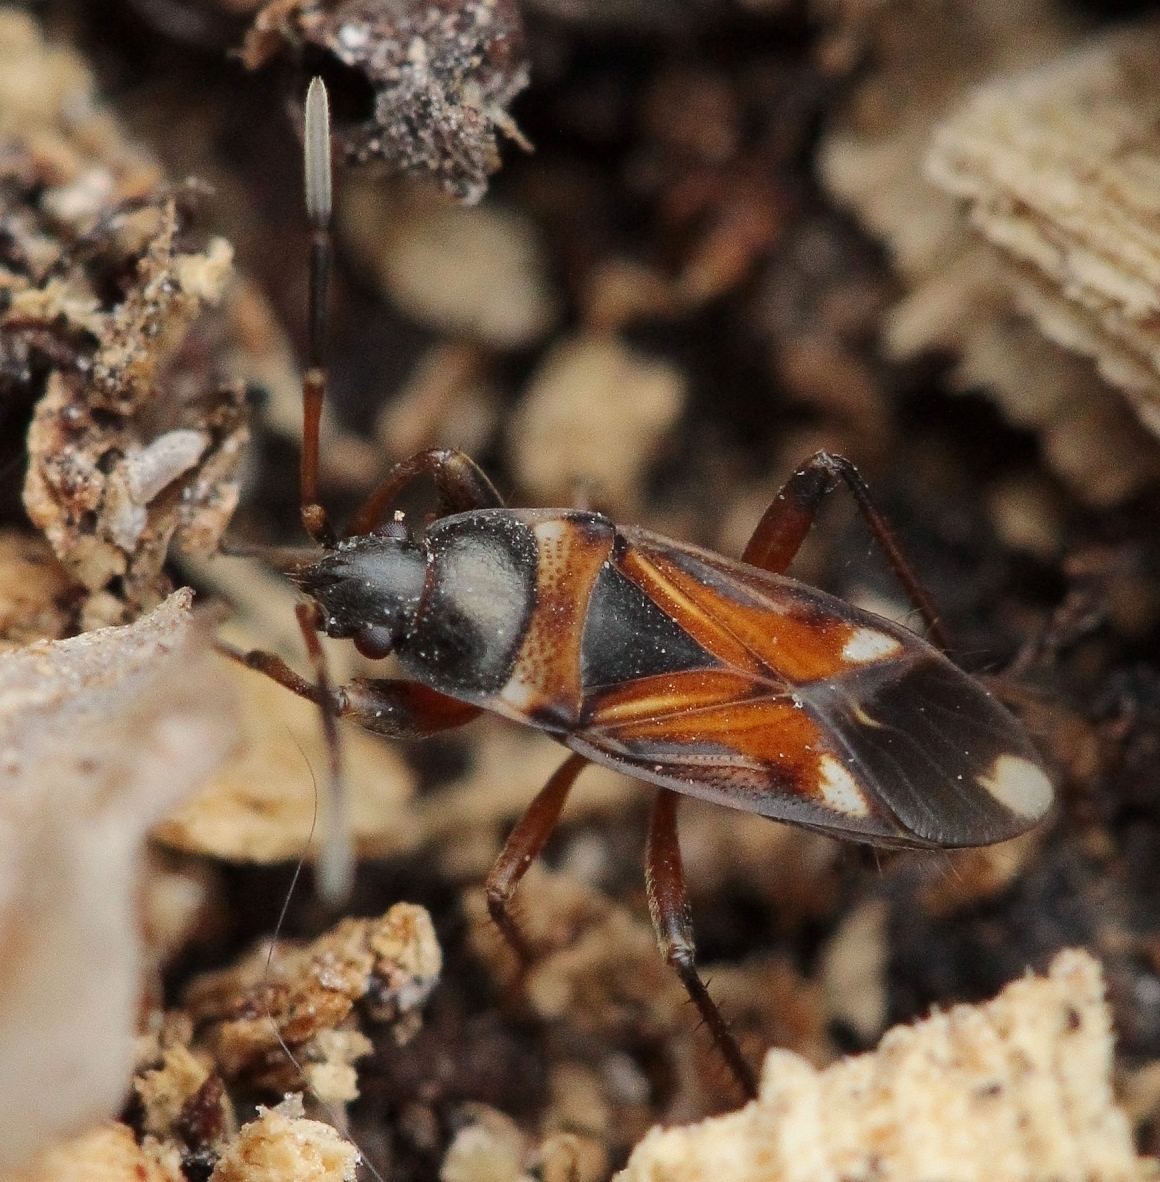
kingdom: Animalia
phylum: Arthropoda
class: Insecta
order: Hemiptera
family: Rhyparochromidae
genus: Raglius
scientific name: Raglius alboacuminatus
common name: Dirt-colored seed bug
